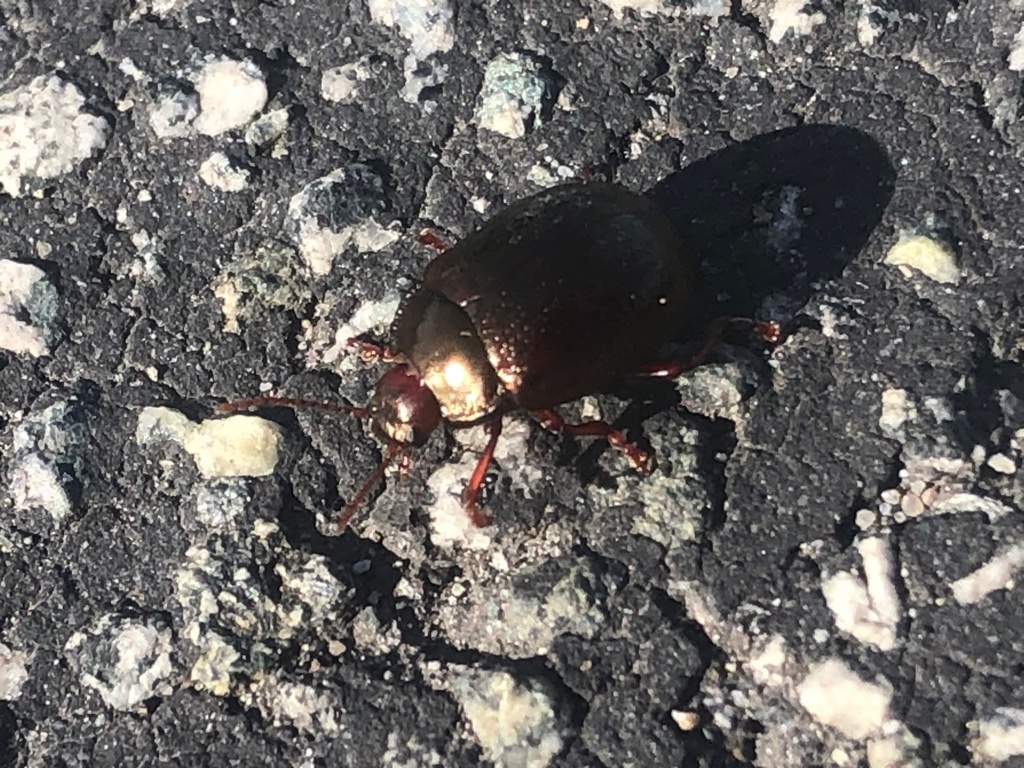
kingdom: Animalia
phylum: Arthropoda
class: Insecta
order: Coleoptera
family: Chrysomelidae
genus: Chrysolina
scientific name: Chrysolina bankii
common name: Leaf beetle
